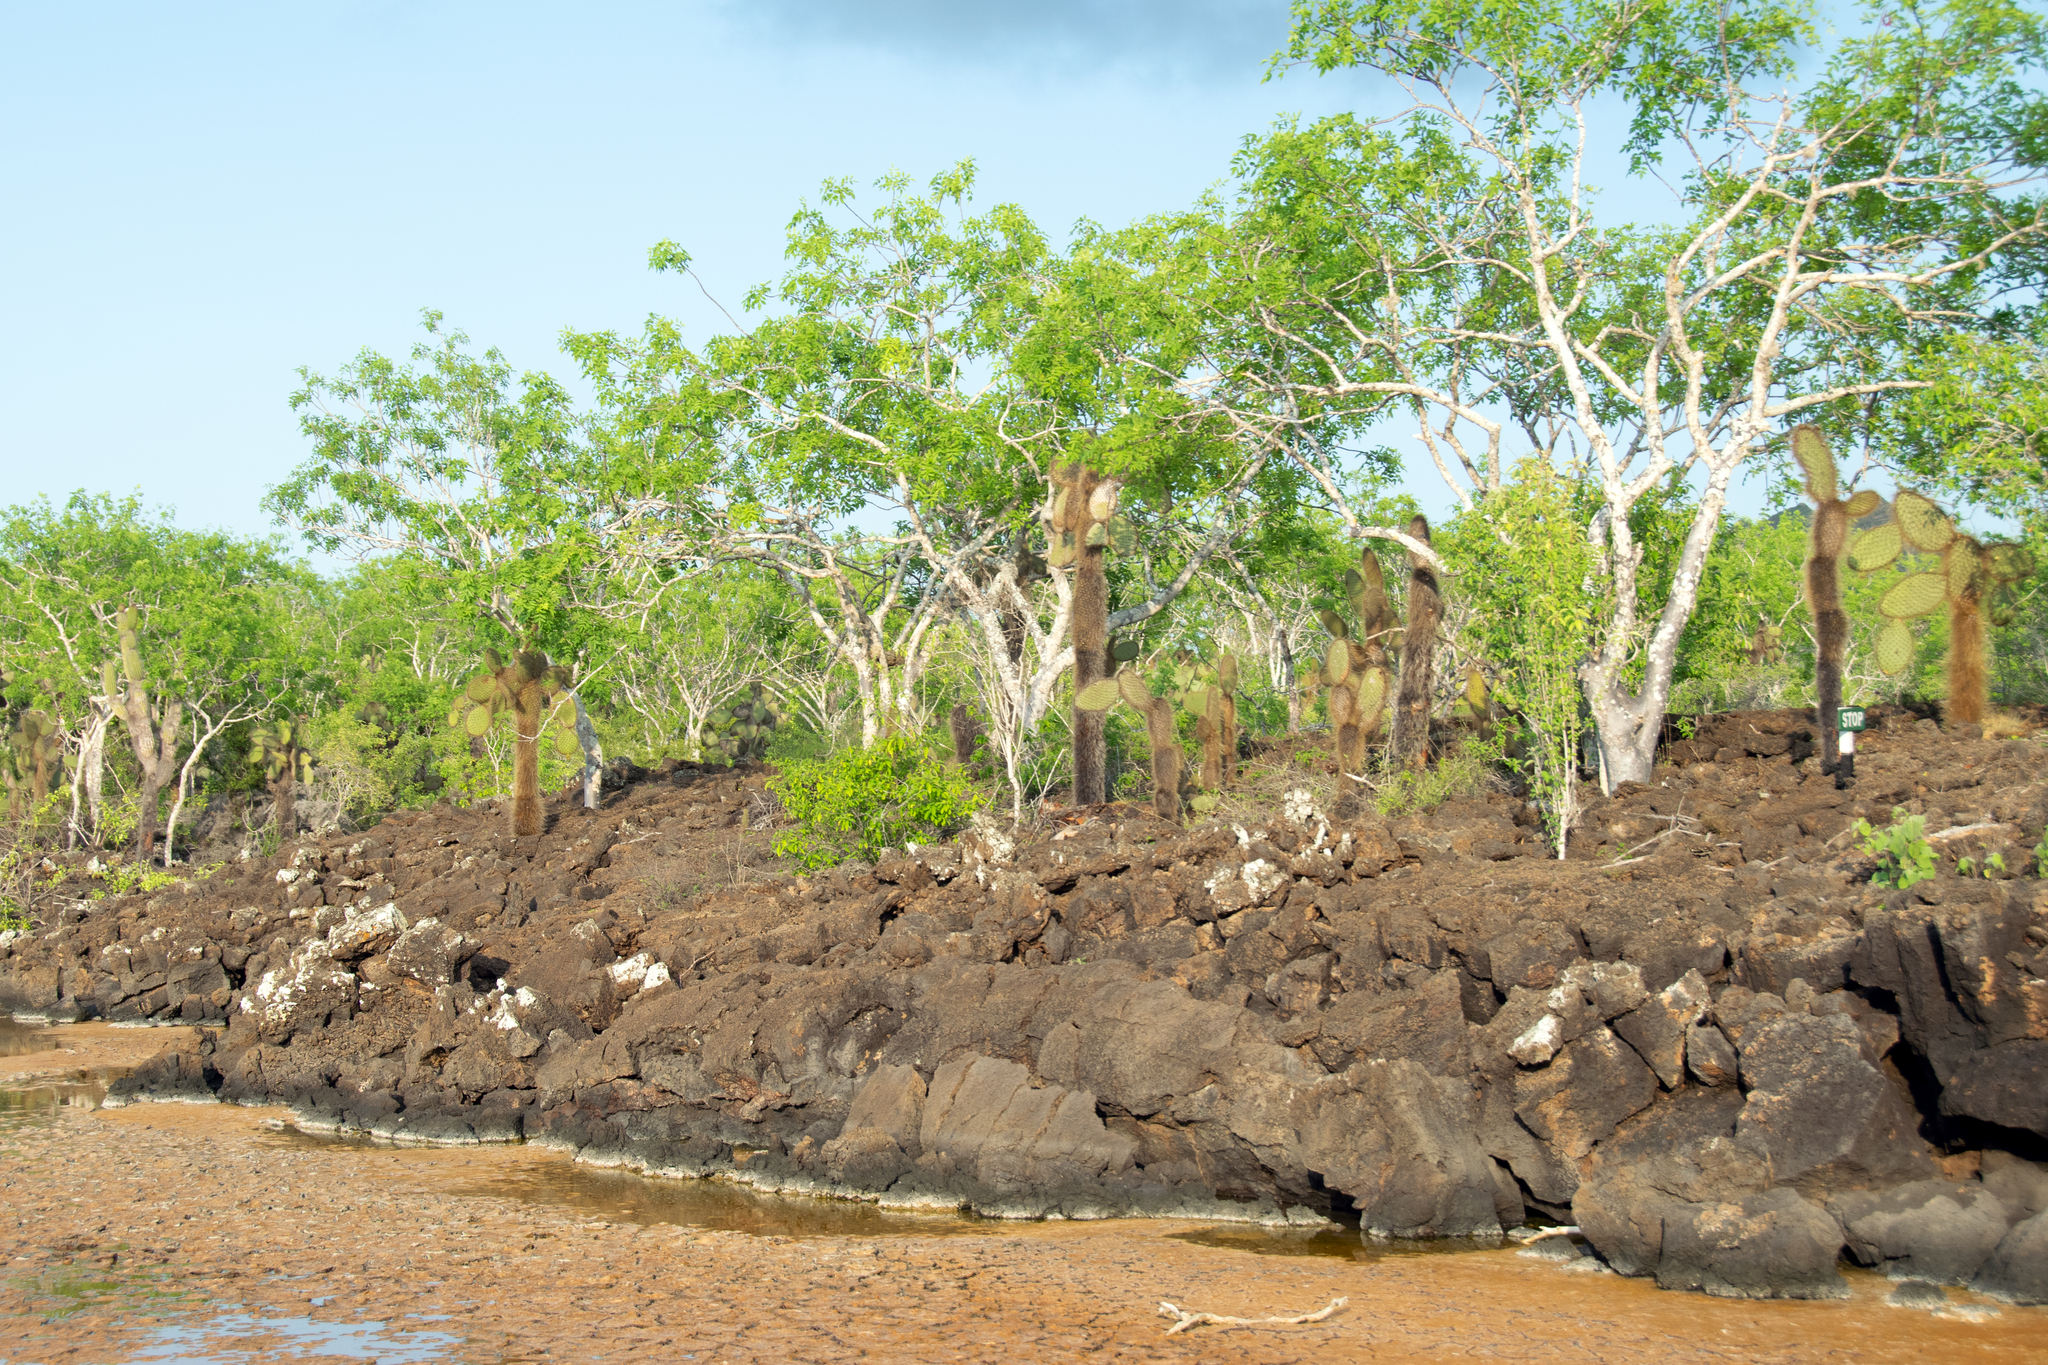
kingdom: Plantae
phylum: Tracheophyta
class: Magnoliopsida
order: Caryophyllales
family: Cactaceae
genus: Opuntia
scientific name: Opuntia galapageia
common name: Galápagos prickly pear
